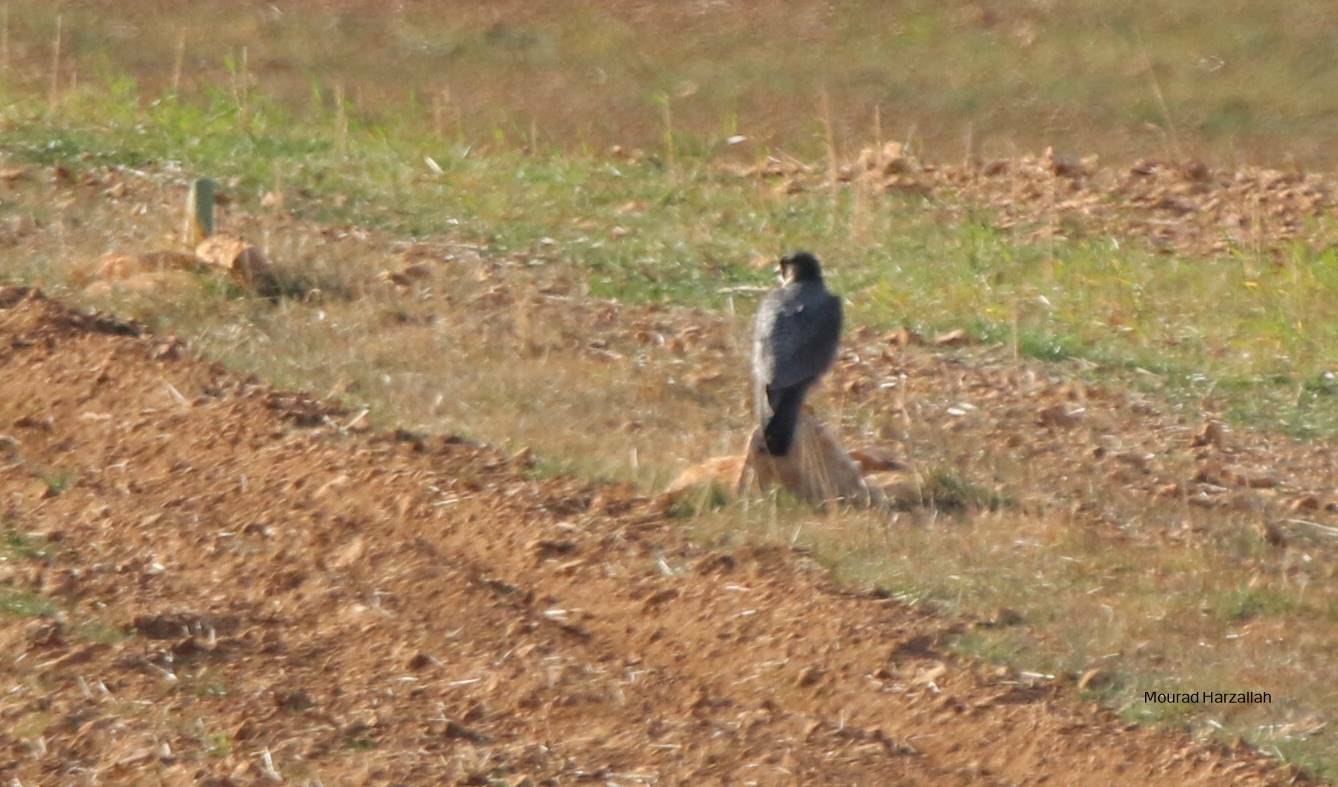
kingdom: Animalia
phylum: Chordata
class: Aves
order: Falconiformes
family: Falconidae
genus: Falco
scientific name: Falco peregrinus
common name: Peregrine falcon
